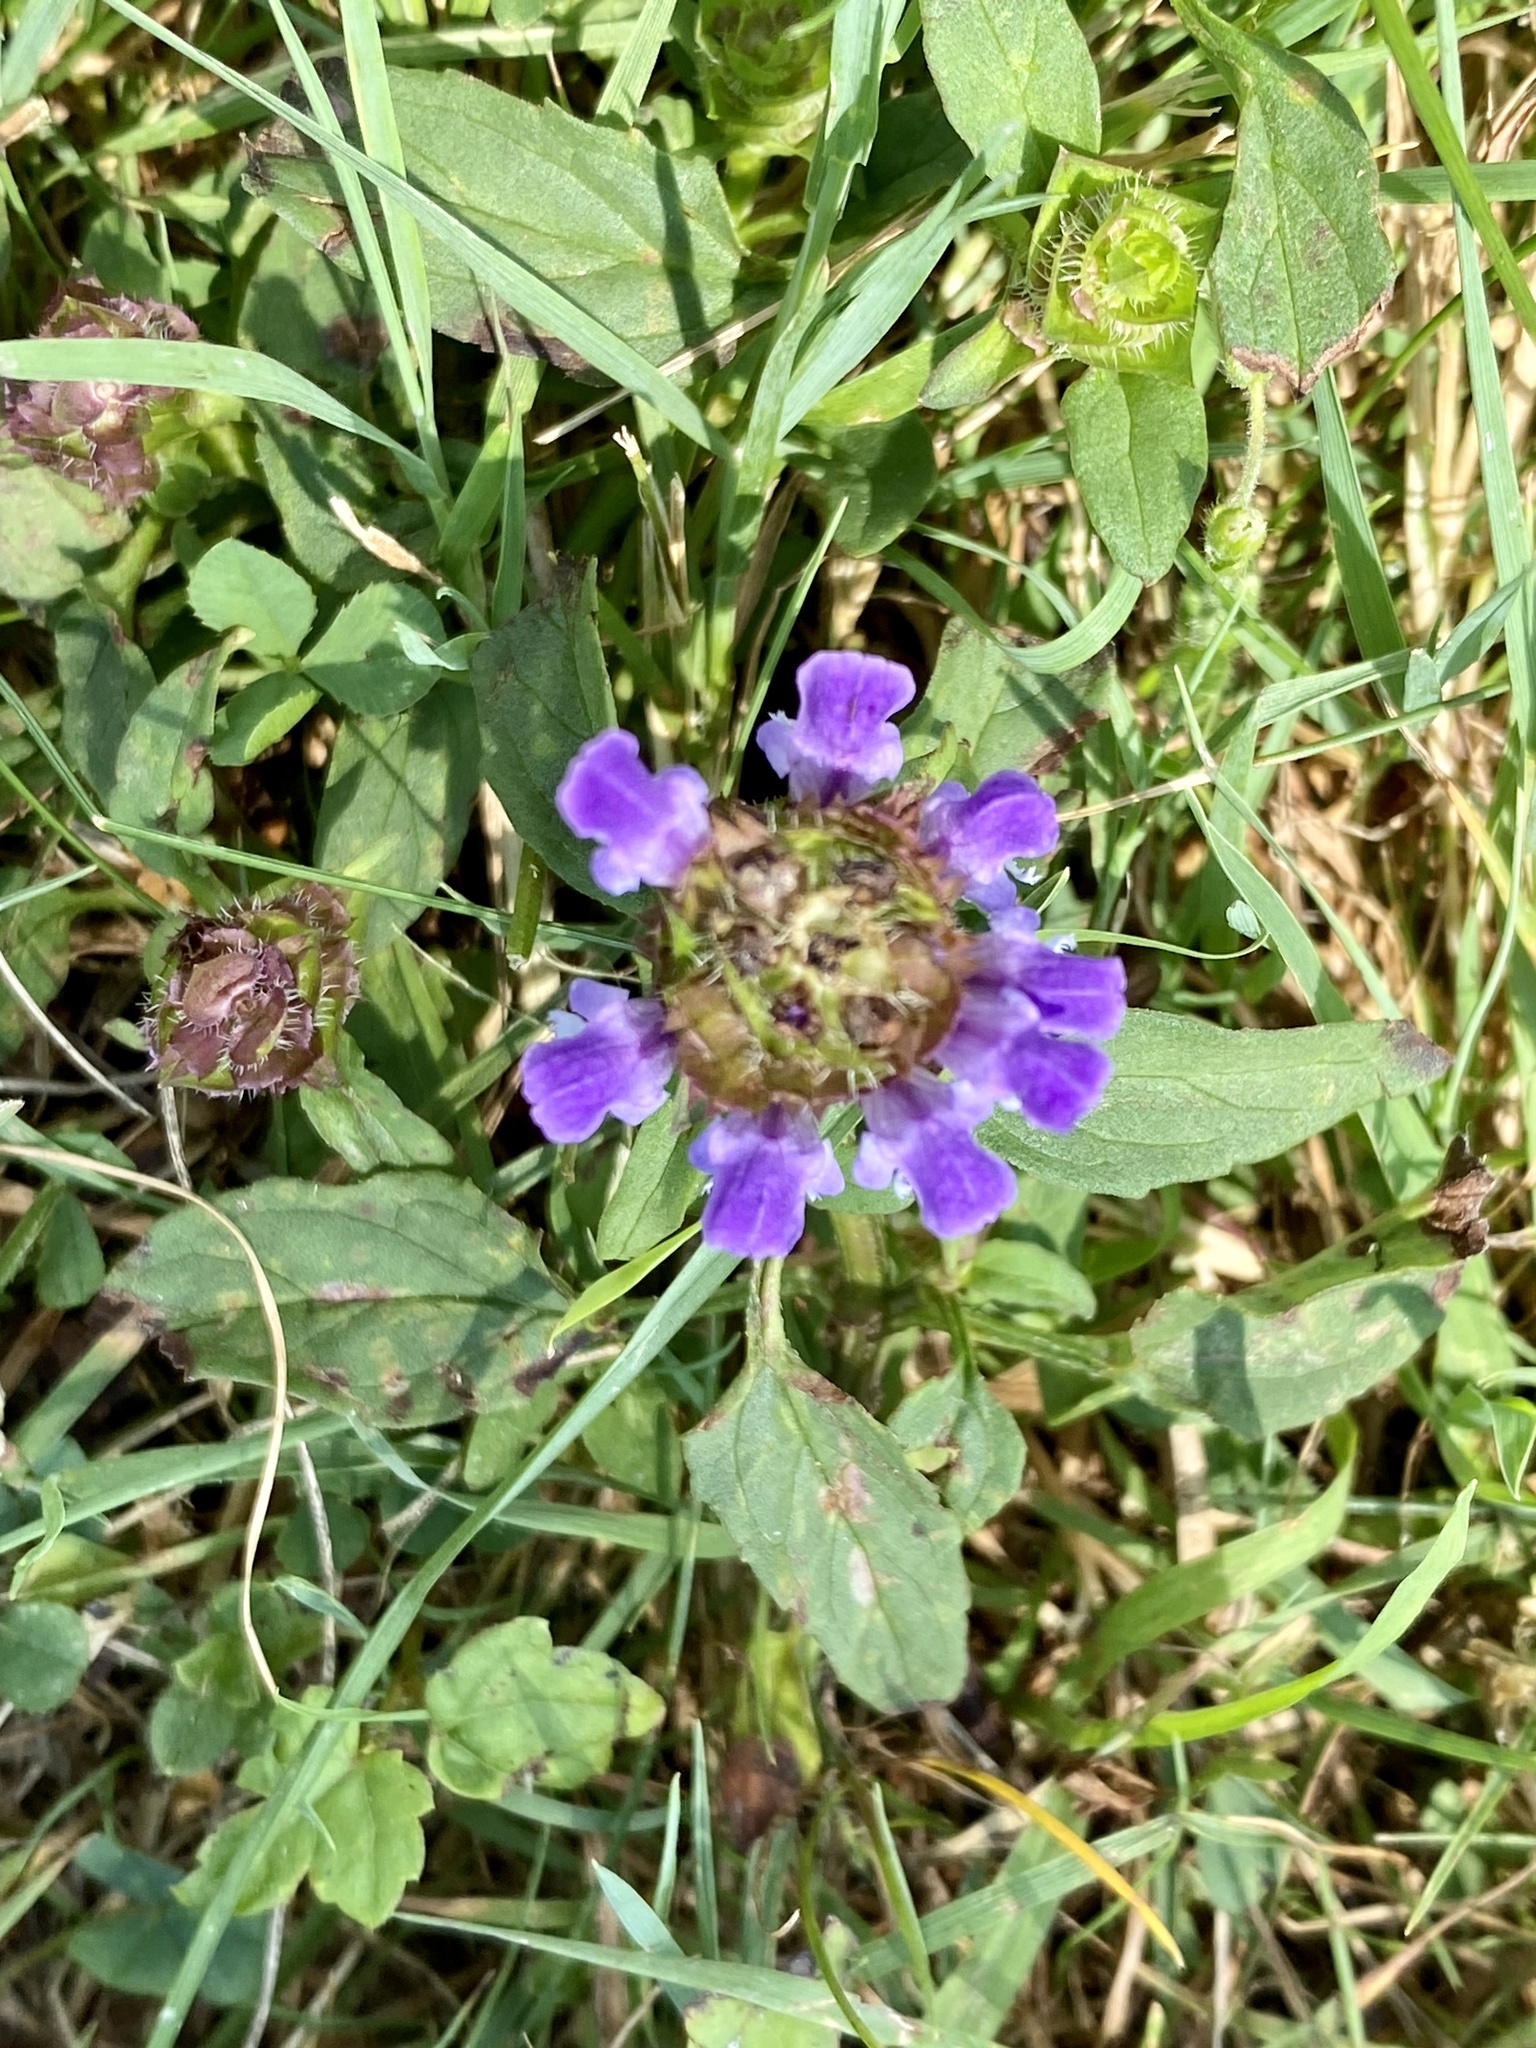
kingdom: Plantae
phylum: Tracheophyta
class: Magnoliopsida
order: Lamiales
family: Lamiaceae
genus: Prunella
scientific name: Prunella vulgaris
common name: Heal-all
